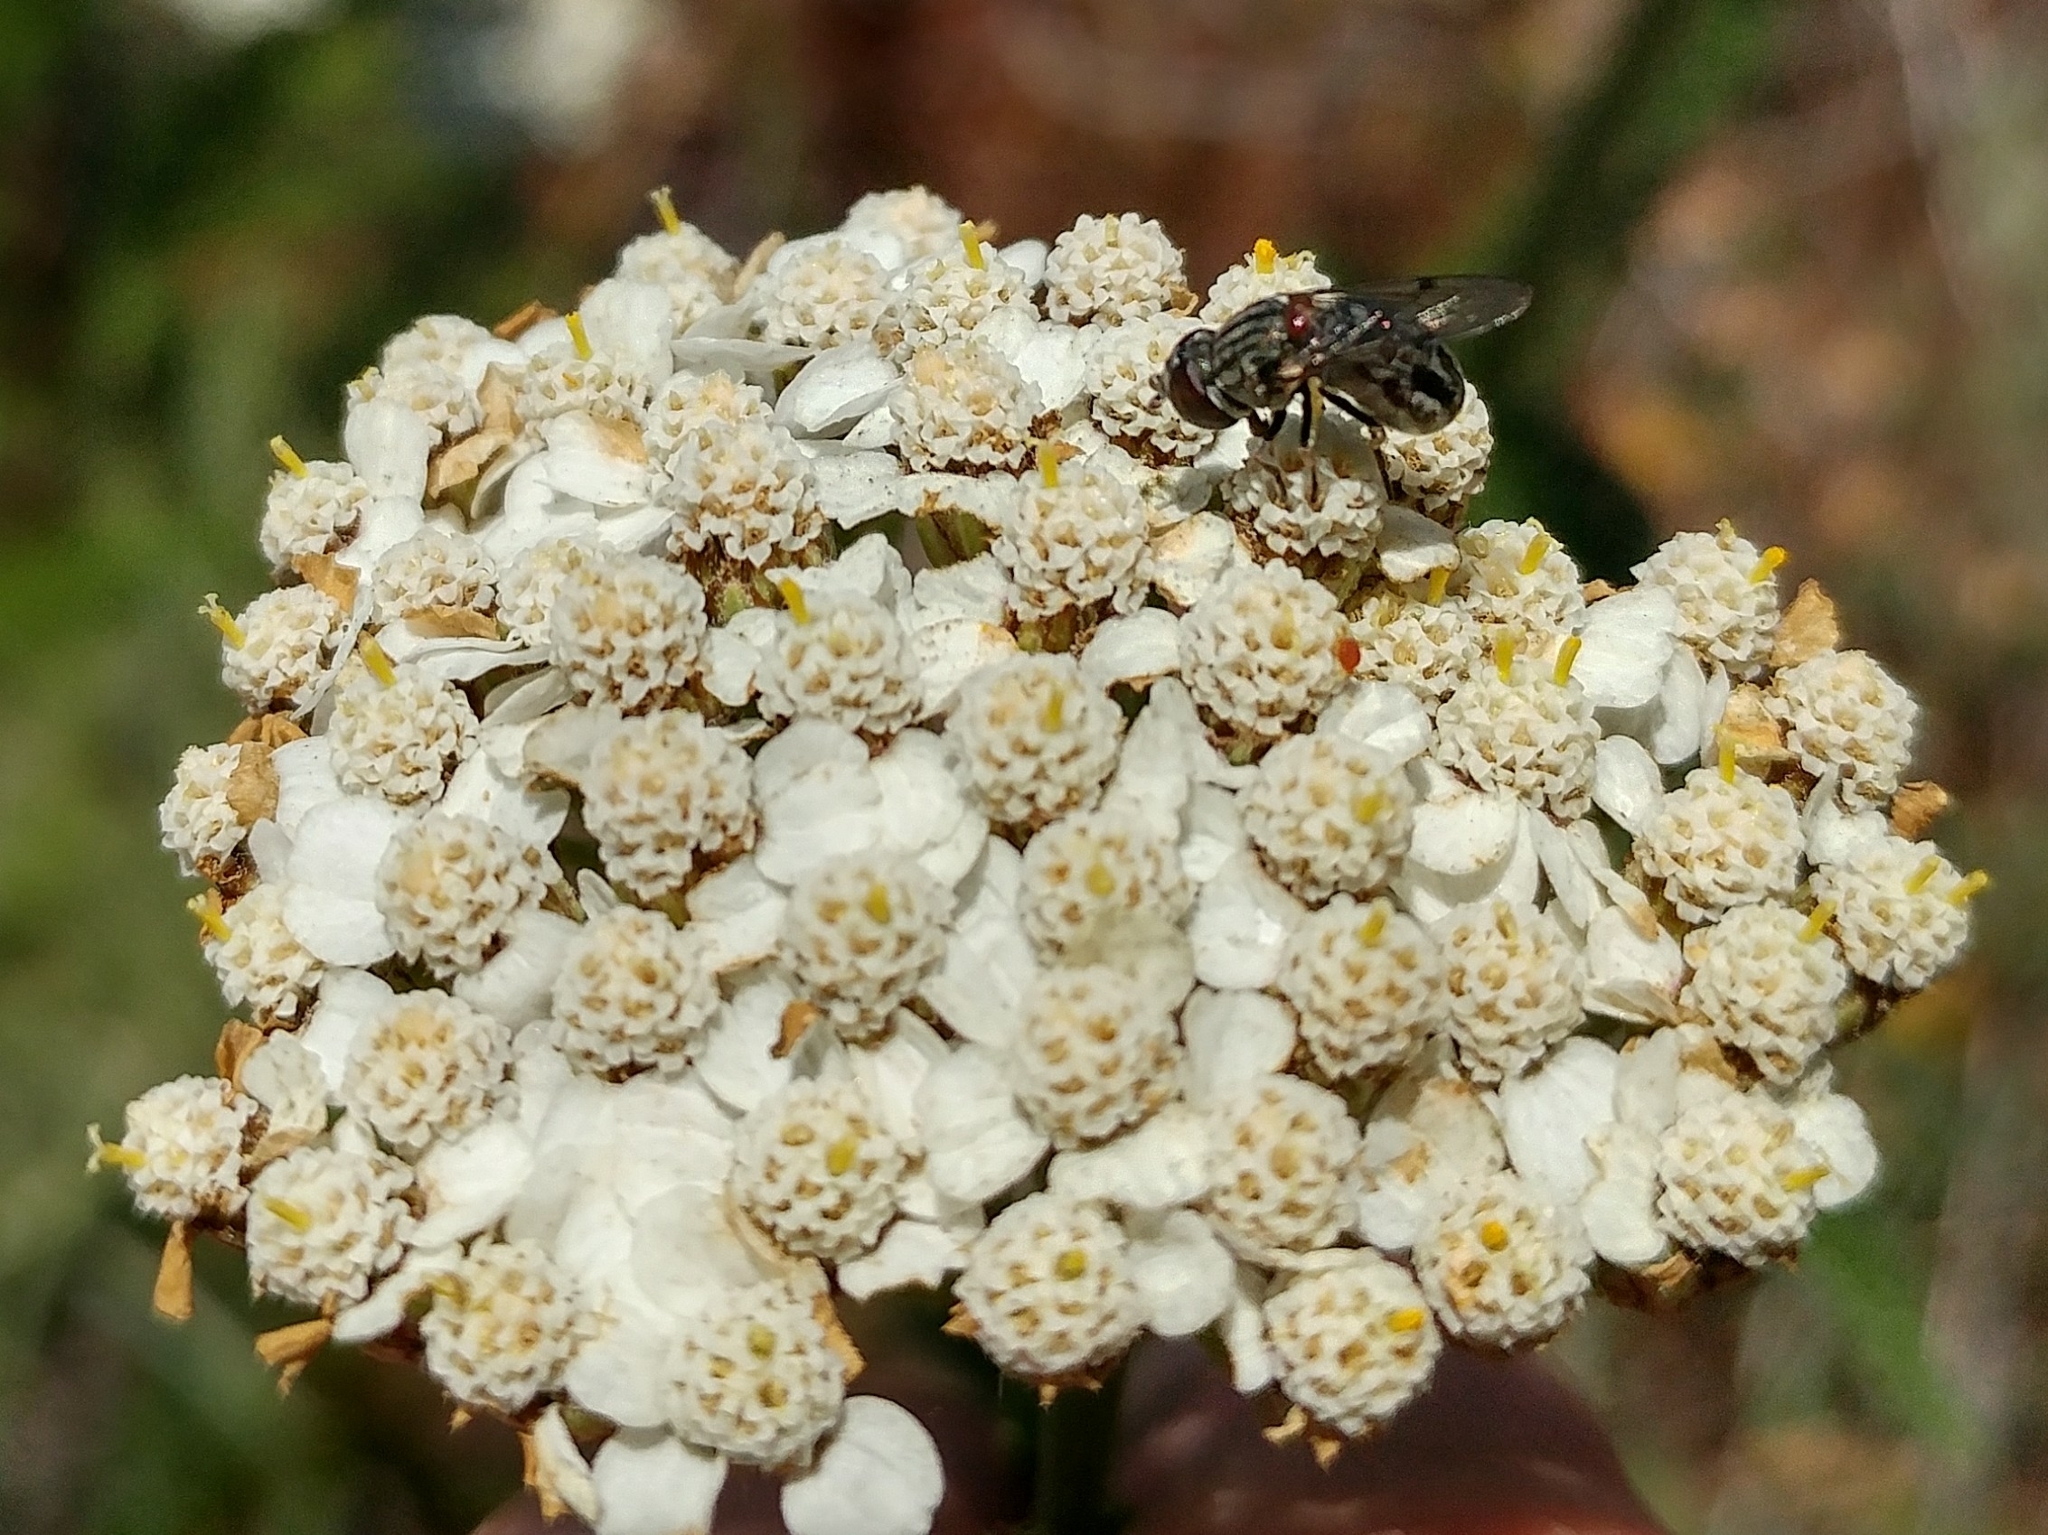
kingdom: Animalia
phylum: Arthropoda
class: Insecta
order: Diptera
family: Syrphidae
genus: Nausigaster
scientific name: Nausigaster unimaculata
